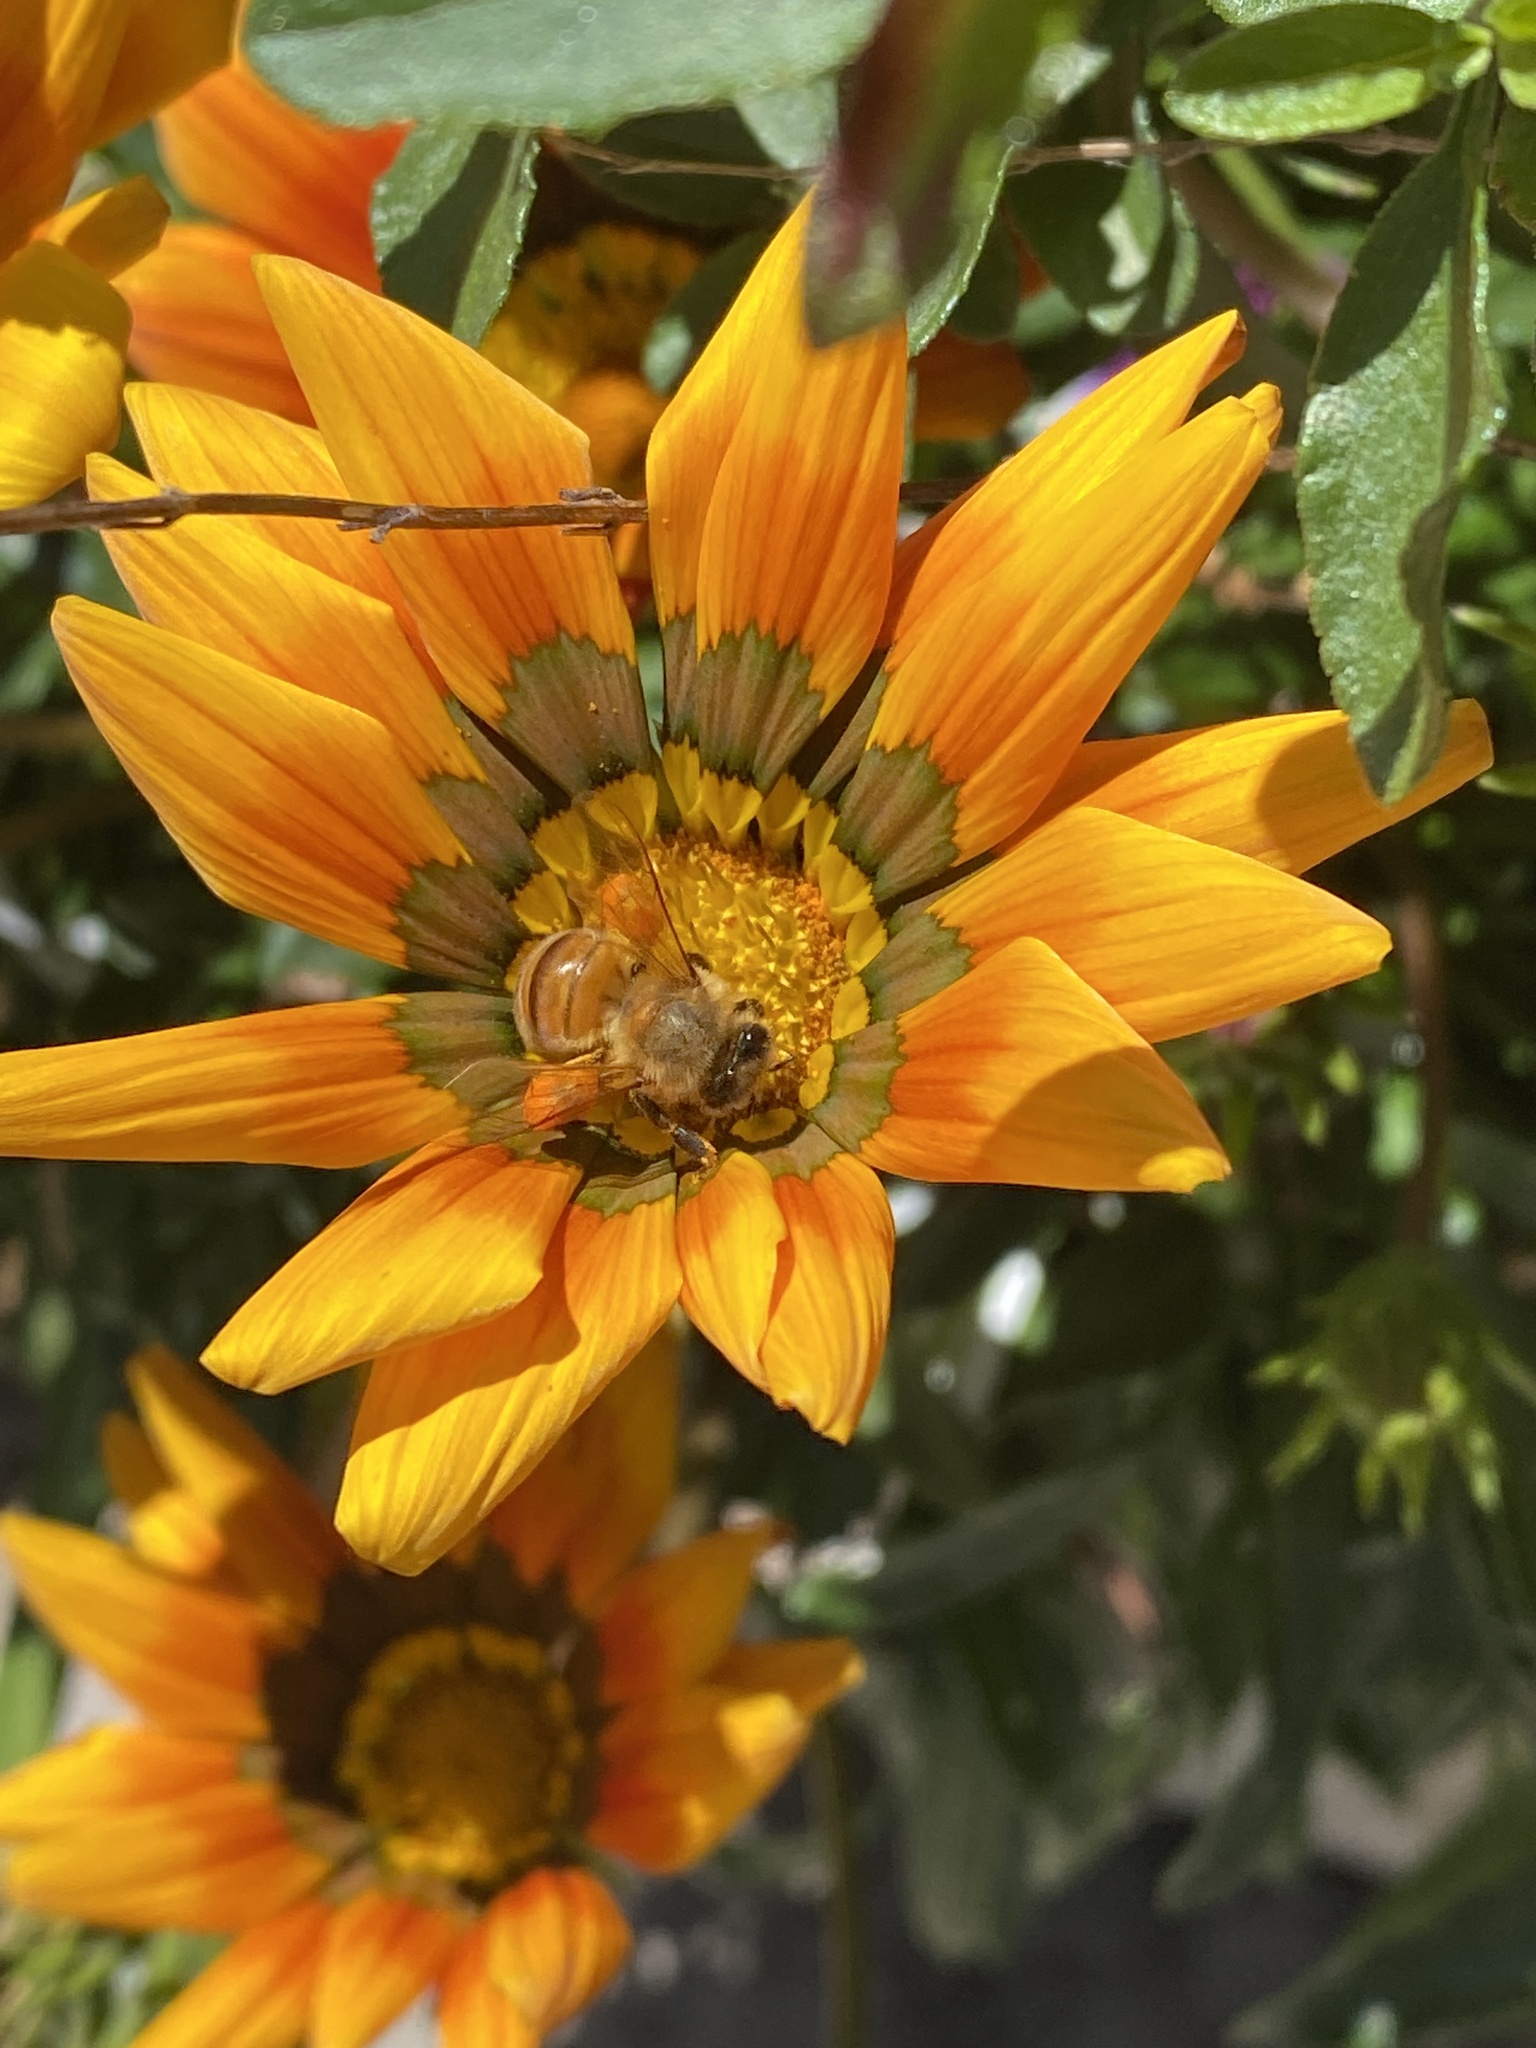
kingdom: Animalia
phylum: Arthropoda
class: Insecta
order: Hymenoptera
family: Apidae
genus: Apis
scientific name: Apis mellifera
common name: Honey bee
